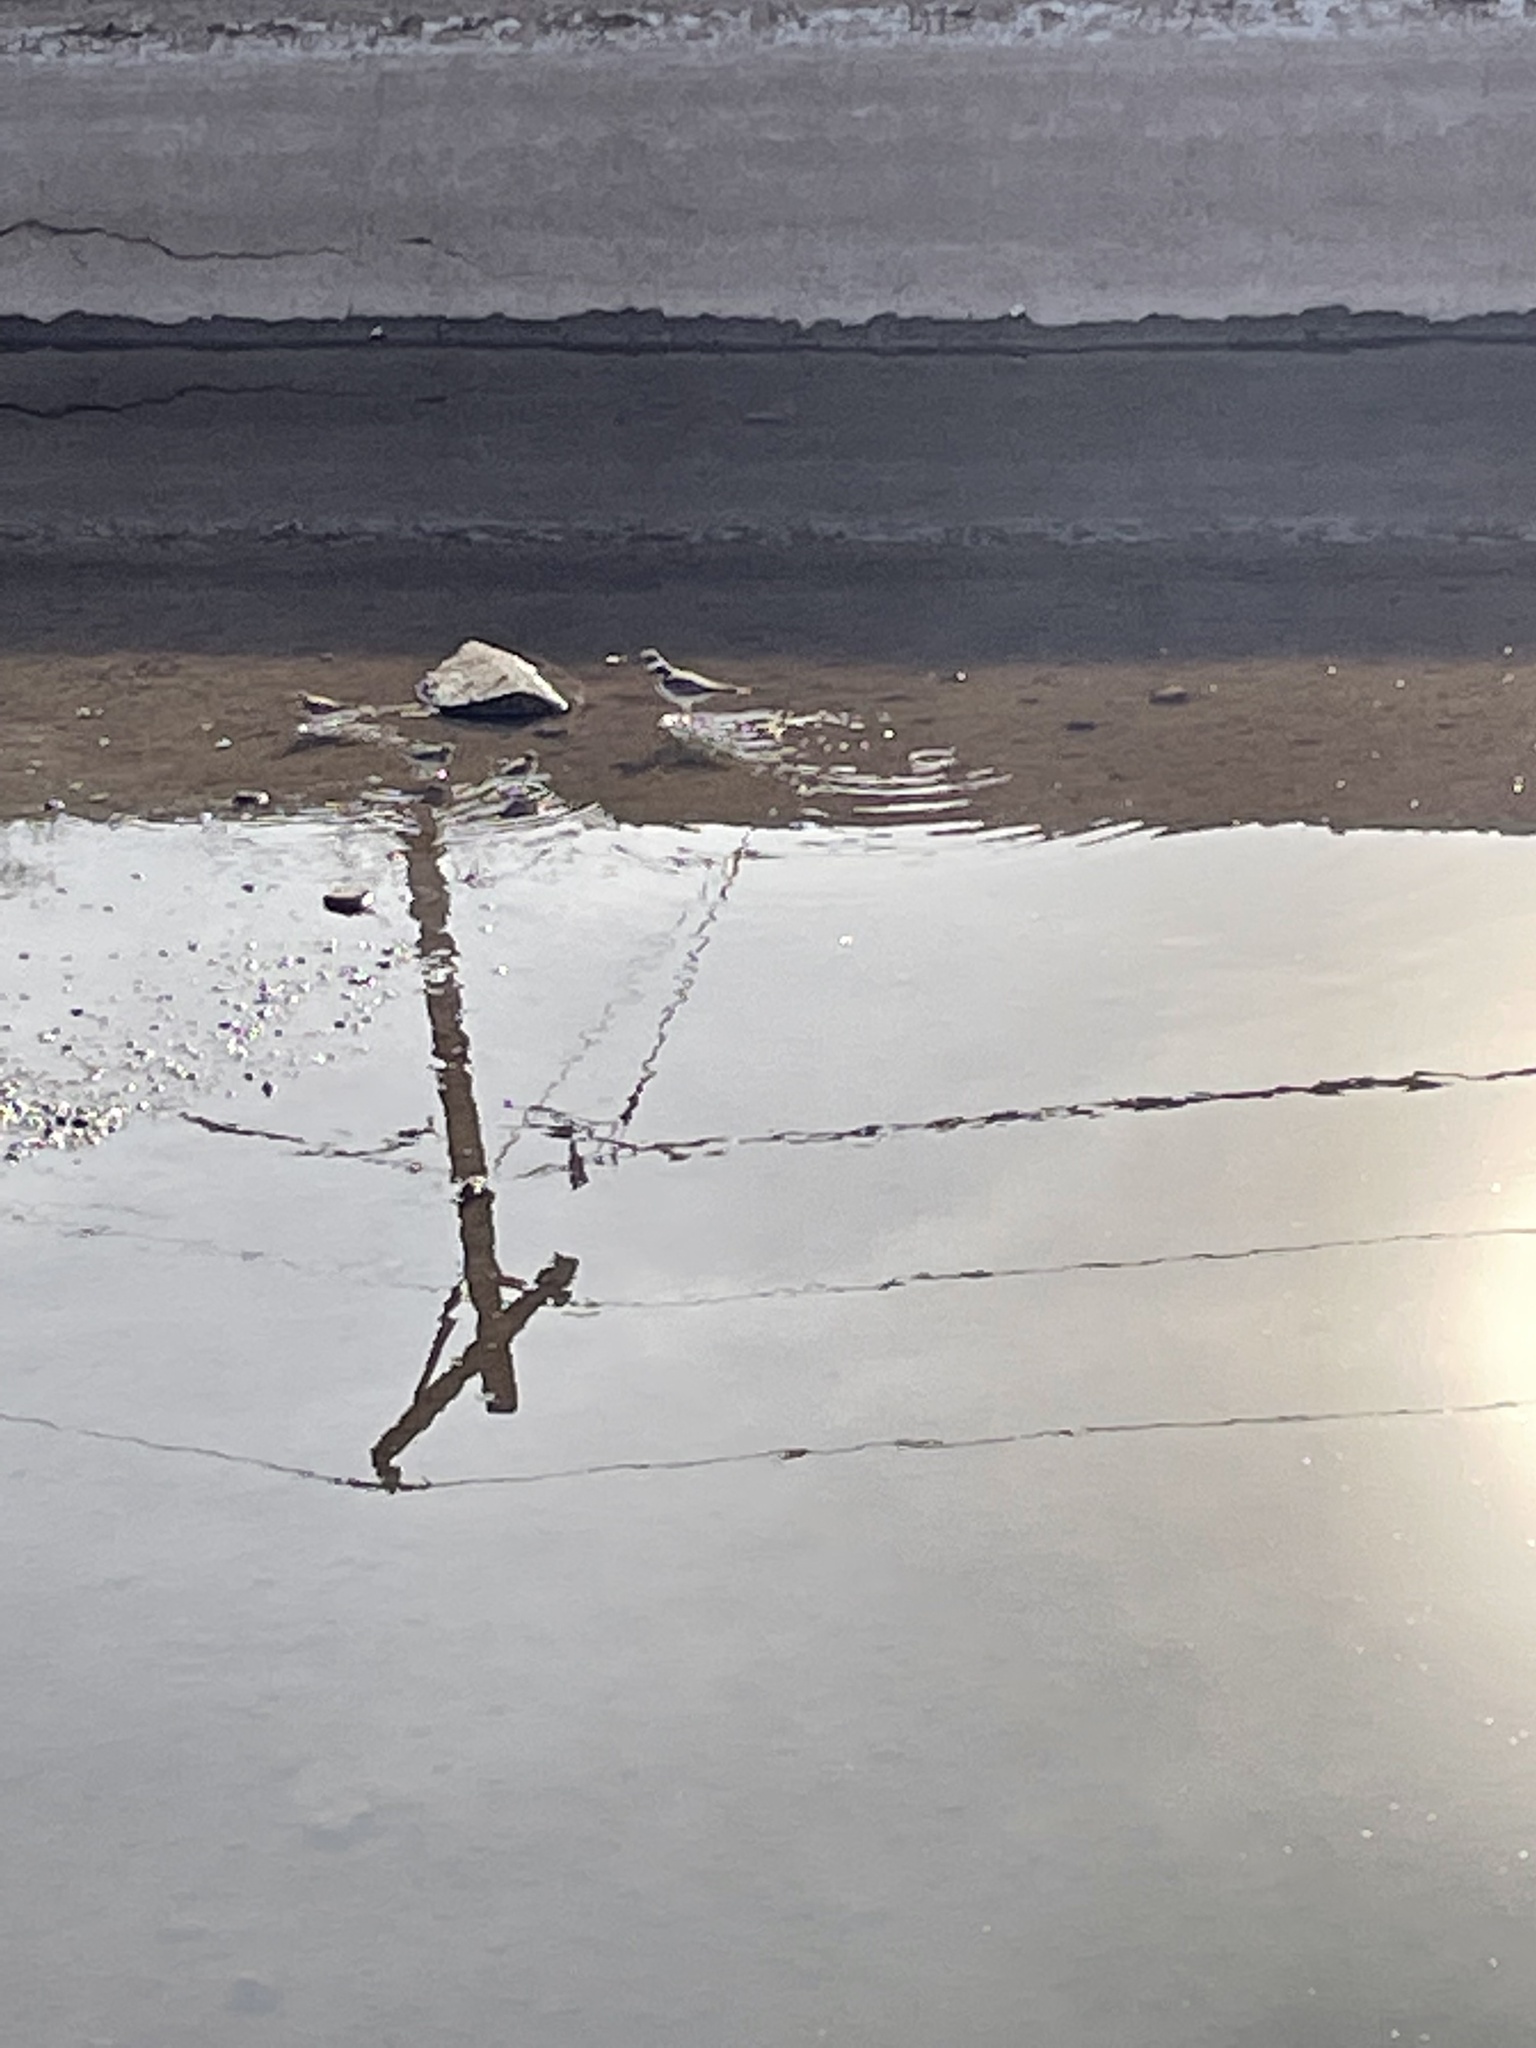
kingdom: Animalia
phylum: Chordata
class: Aves
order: Charadriiformes
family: Charadriidae
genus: Charadrius
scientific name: Charadrius vociferus
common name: Killdeer
